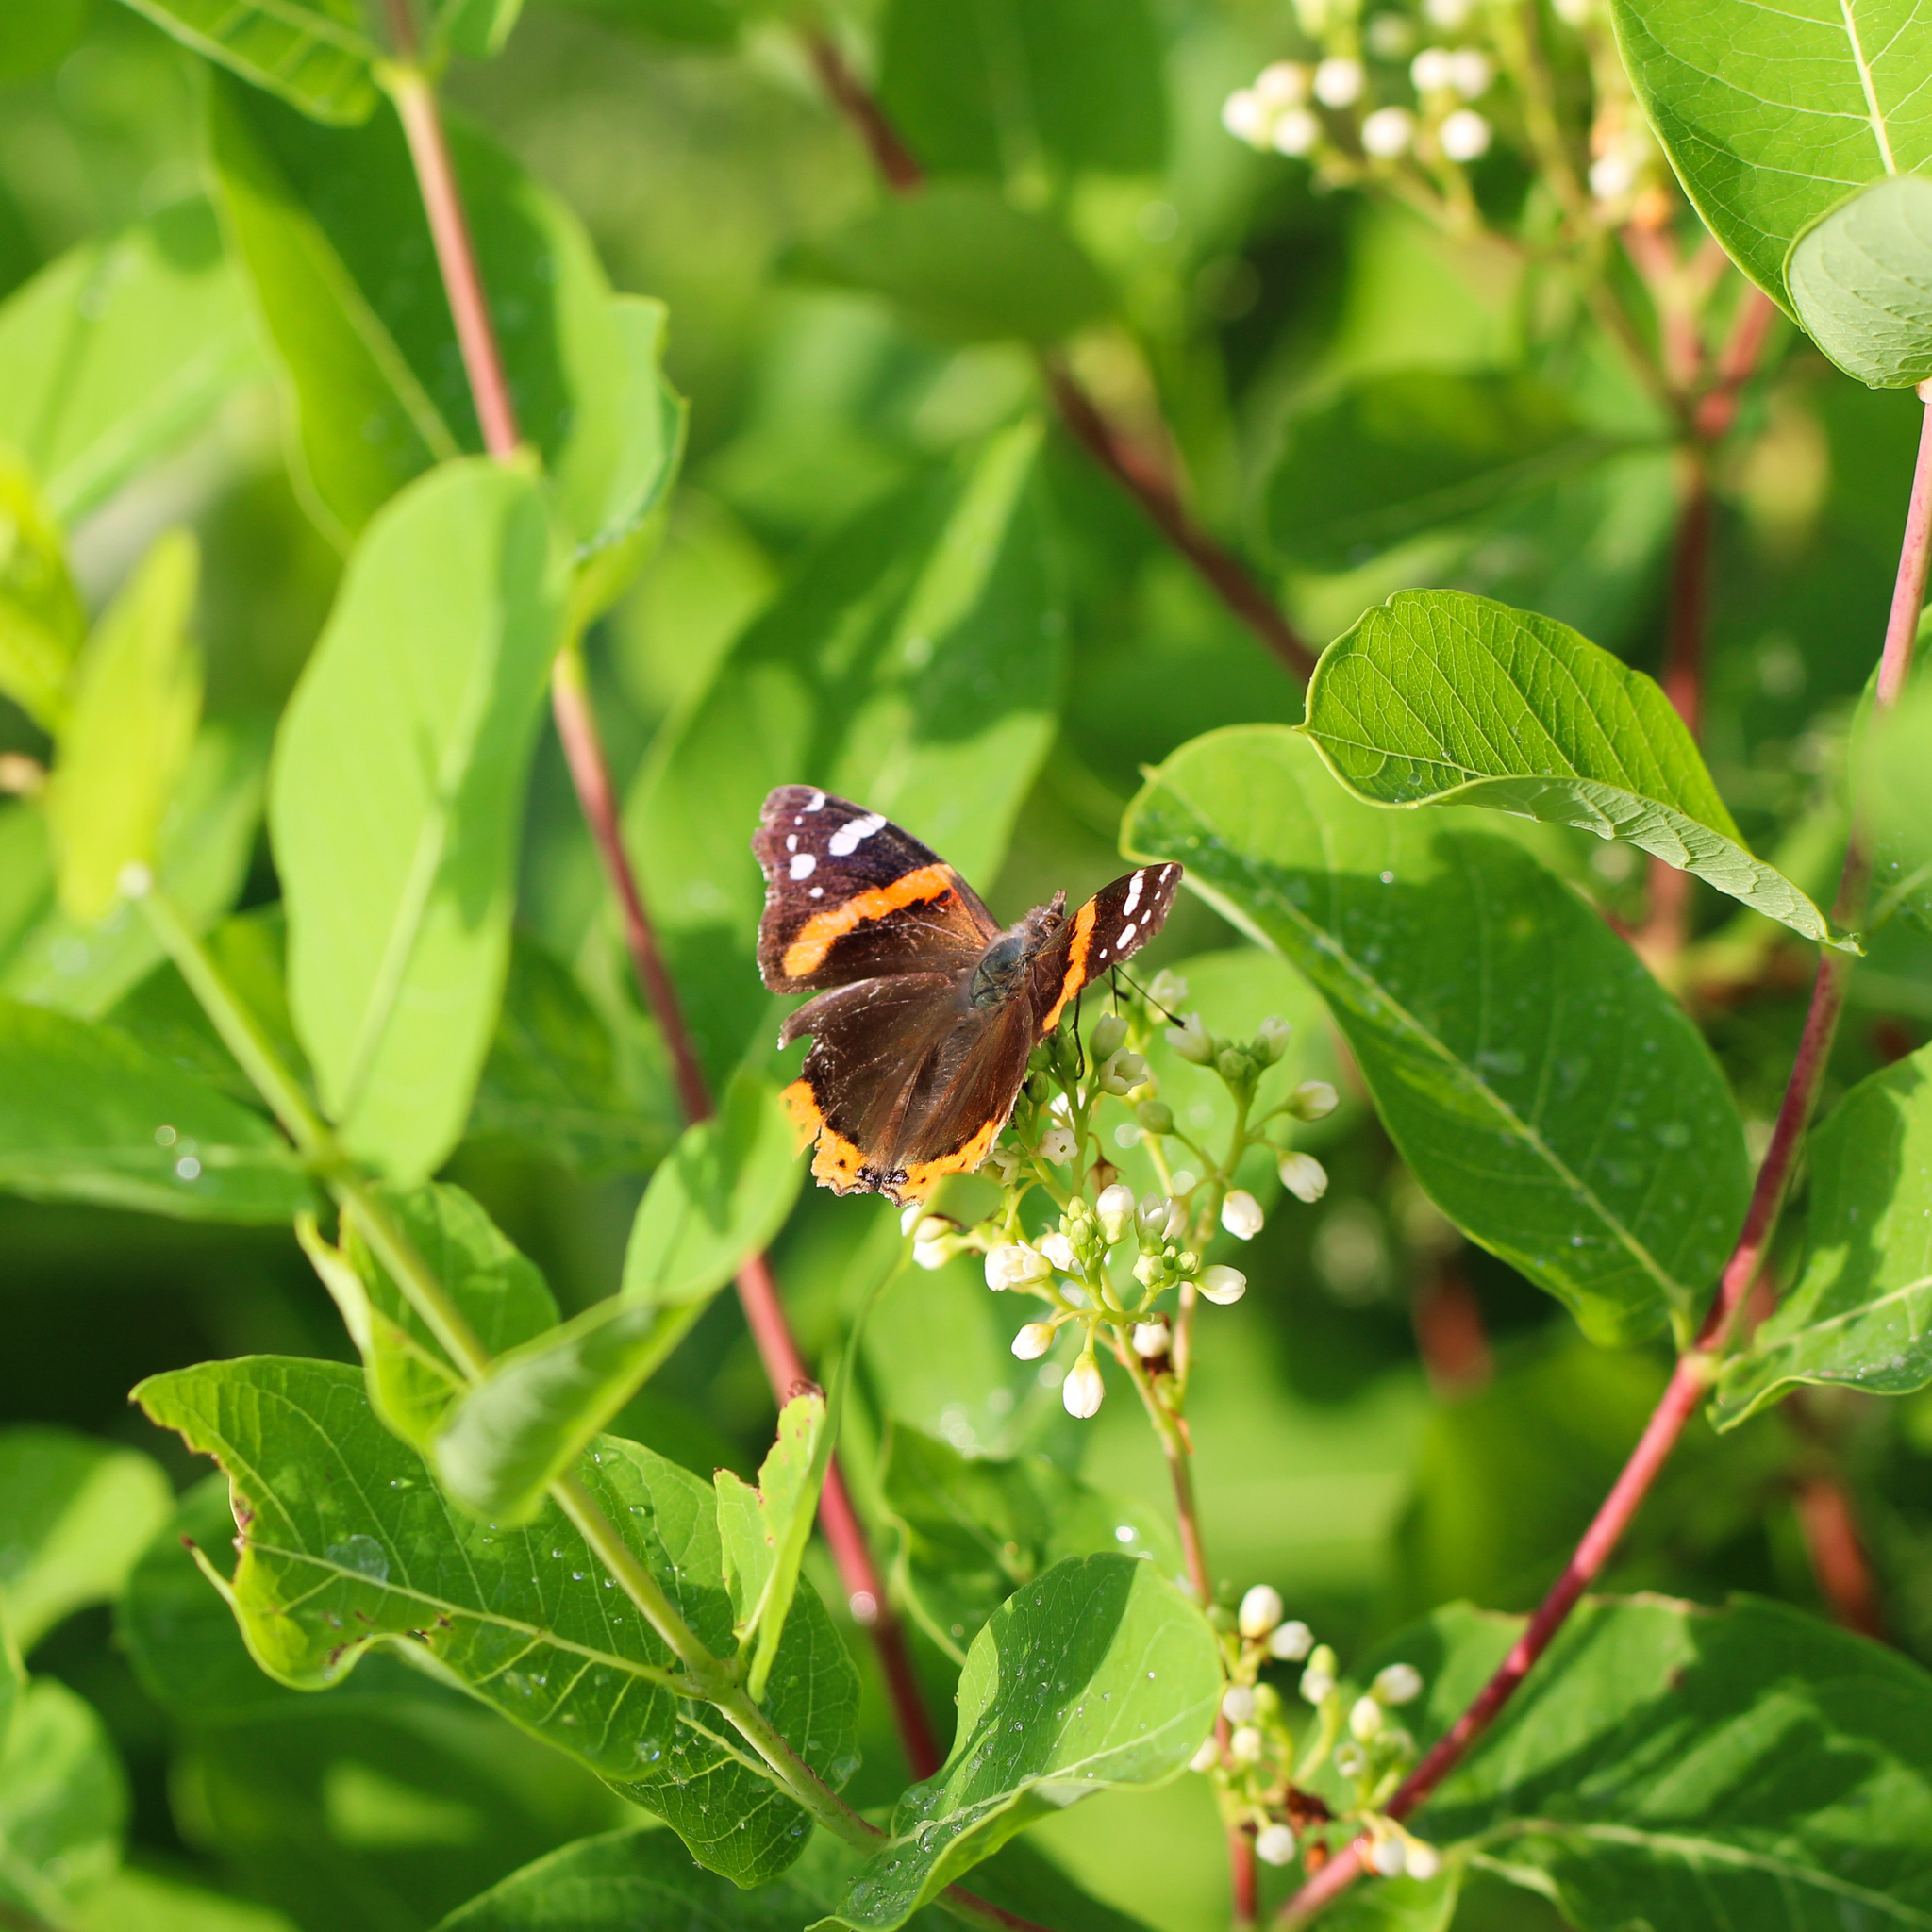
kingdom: Animalia
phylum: Arthropoda
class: Insecta
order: Lepidoptera
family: Nymphalidae
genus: Vanessa
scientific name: Vanessa atalanta
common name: Red admiral
